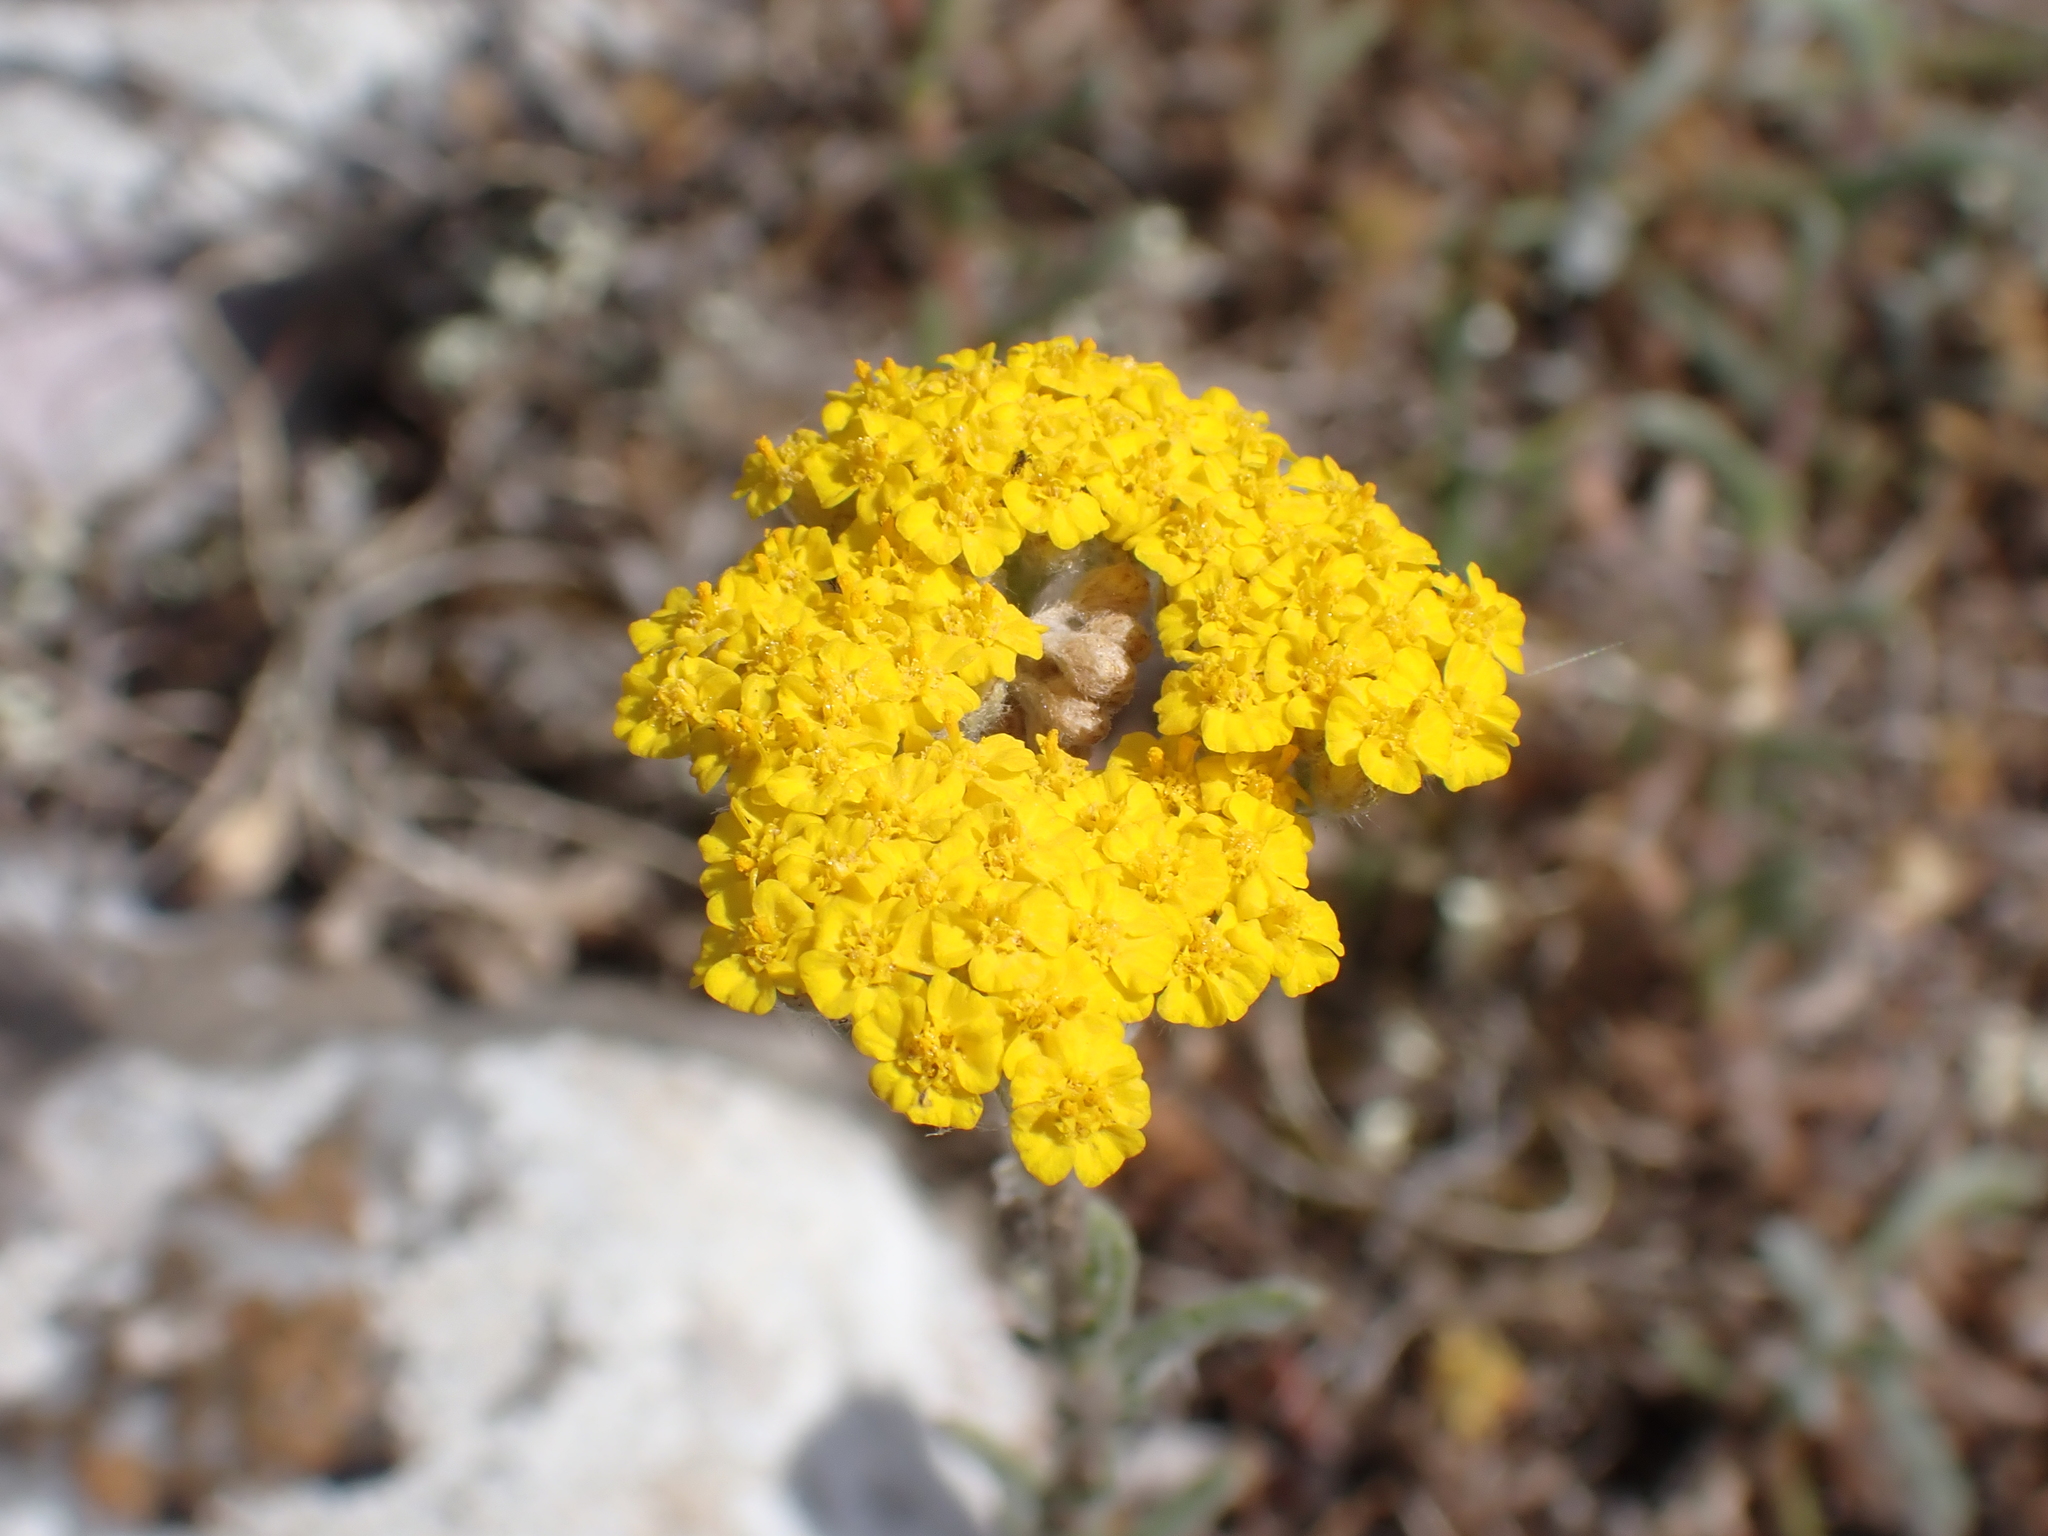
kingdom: Plantae
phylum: Tracheophyta
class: Magnoliopsida
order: Asterales
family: Asteraceae
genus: Achillea
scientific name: Achillea tomentosa
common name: Yellow milfoil
